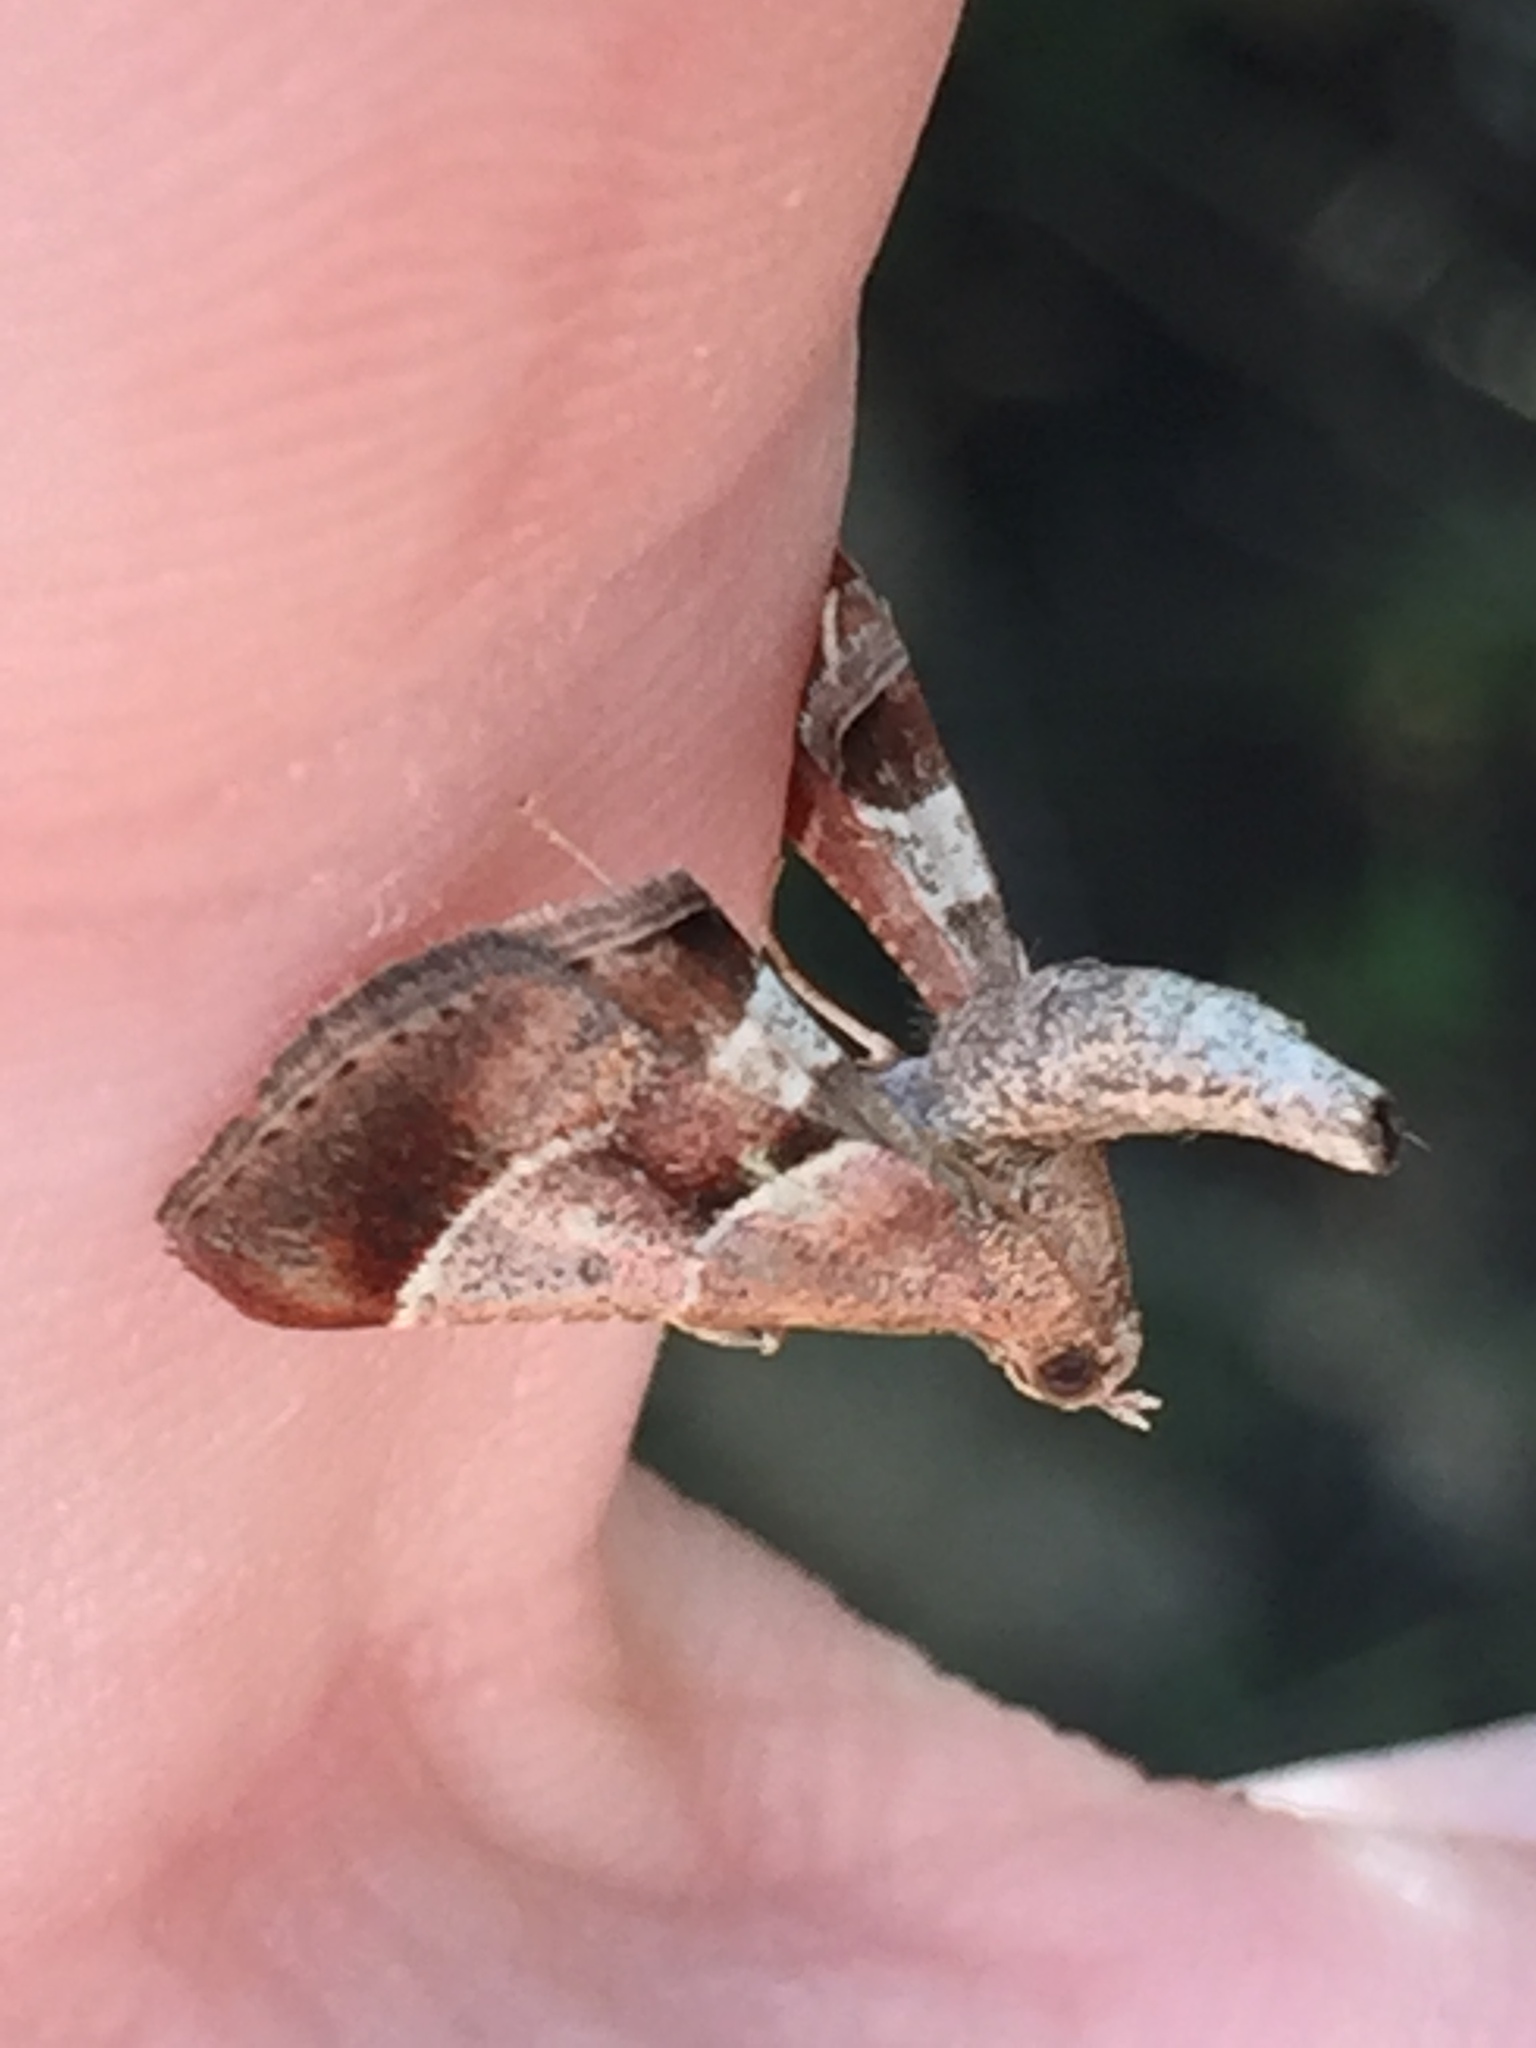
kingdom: Animalia
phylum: Arthropoda
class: Insecta
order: Lepidoptera
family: Pyralidae
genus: Gauna
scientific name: Gauna aegusalis
